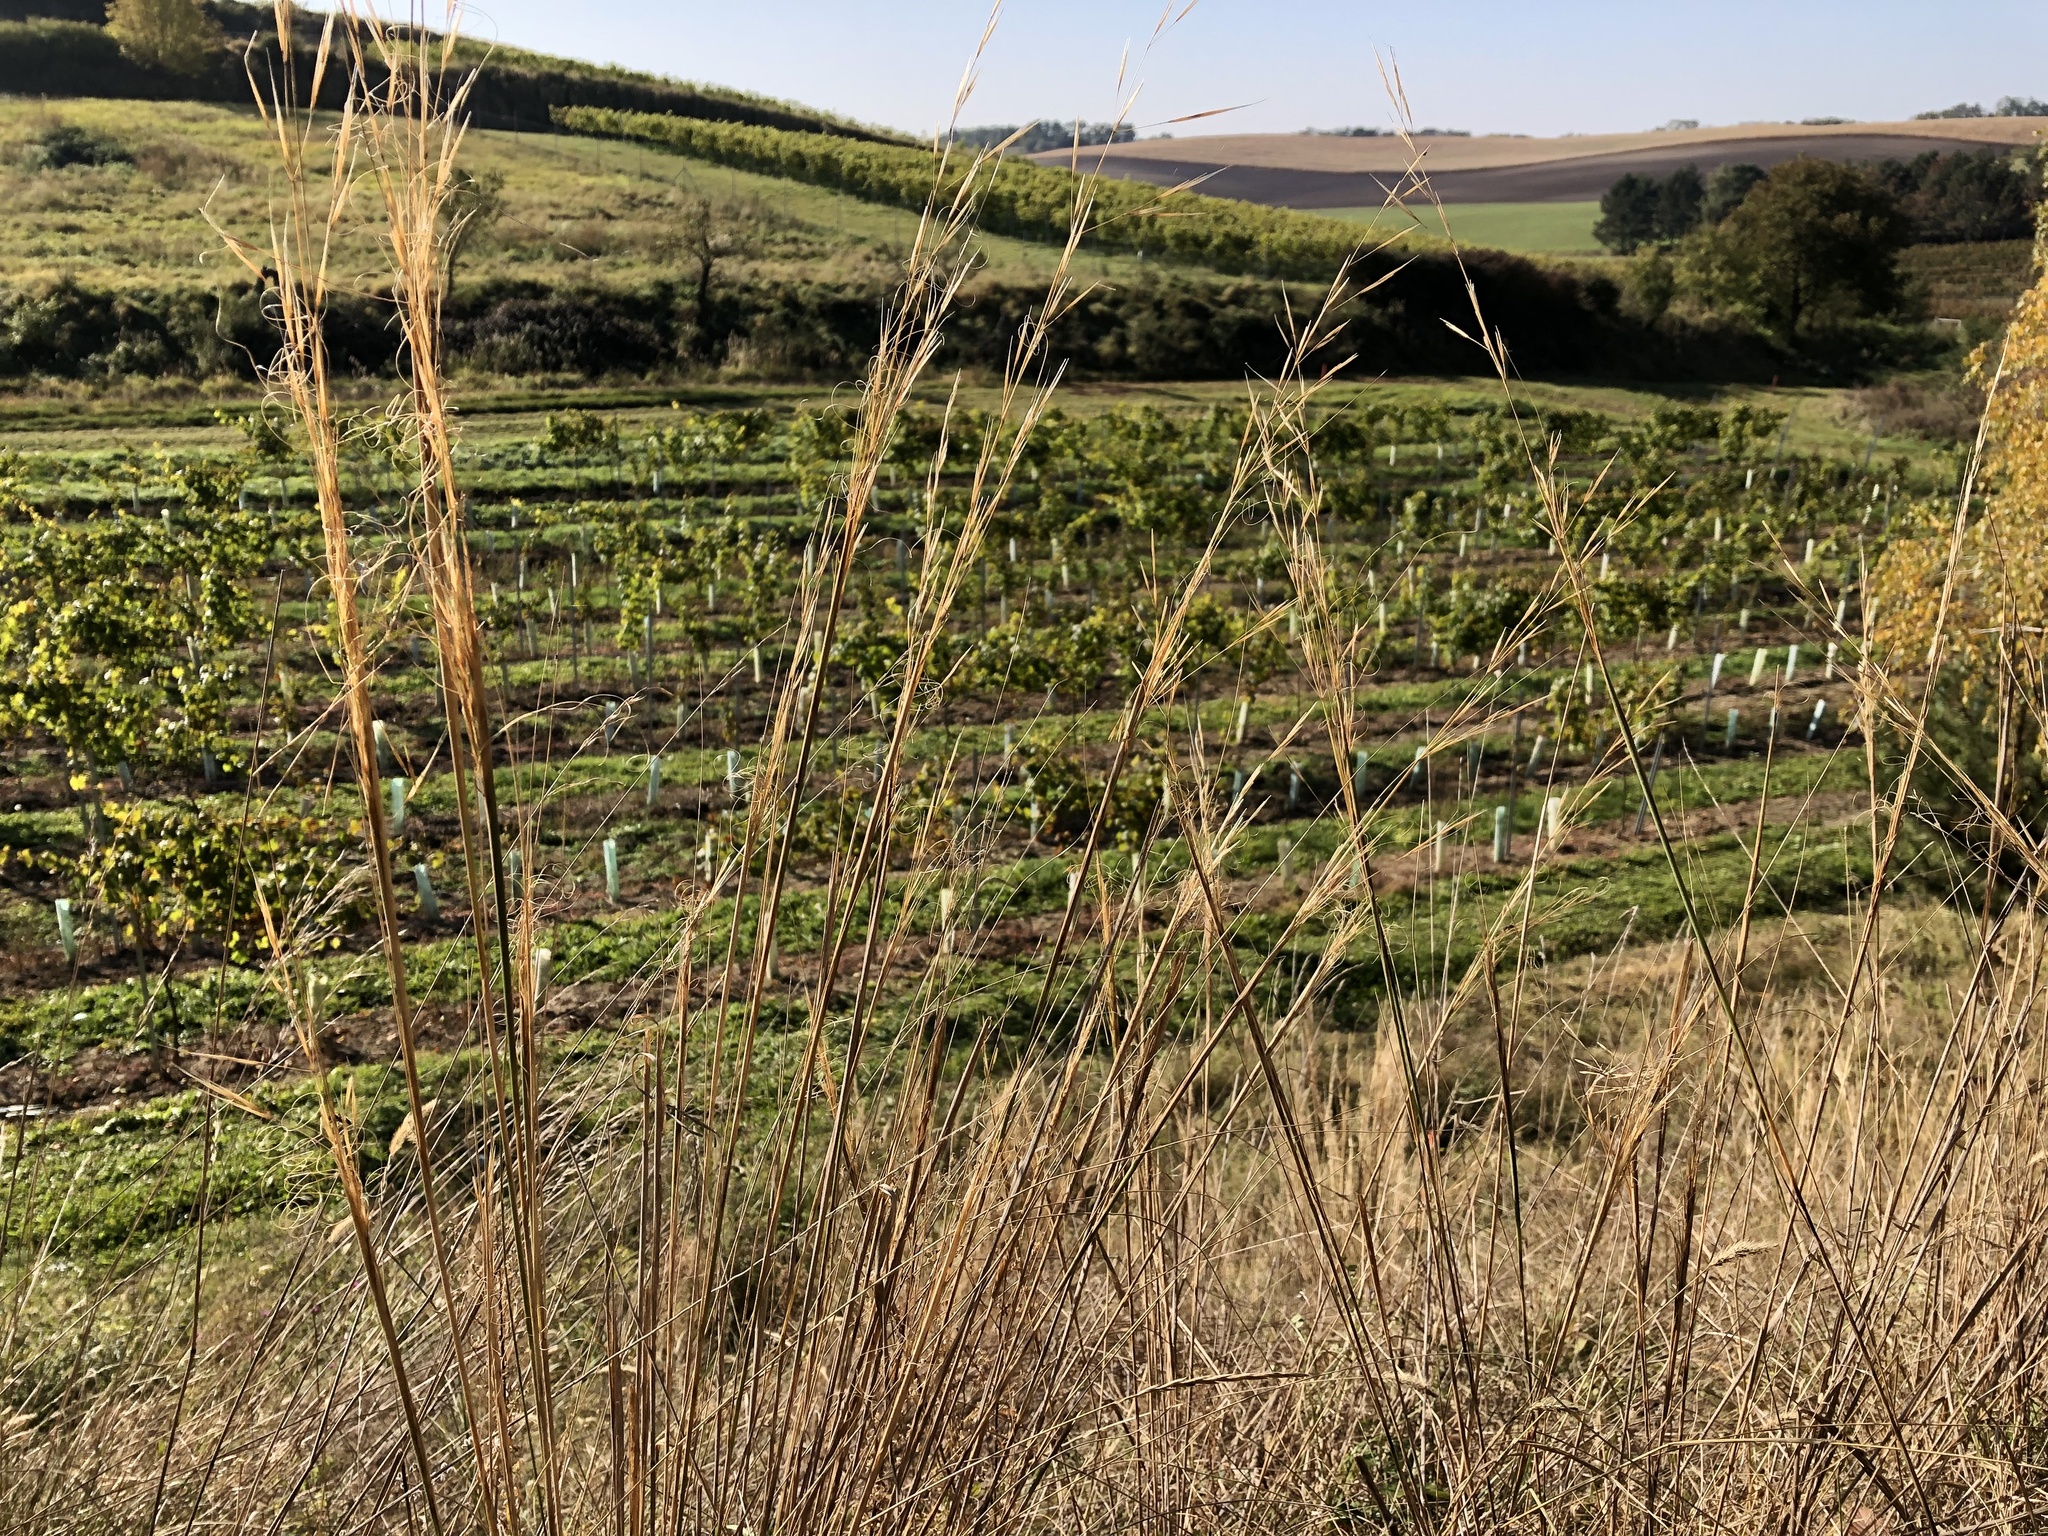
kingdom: Plantae
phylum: Tracheophyta
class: Liliopsida
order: Poales
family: Poaceae
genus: Stipa
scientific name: Stipa capillata
